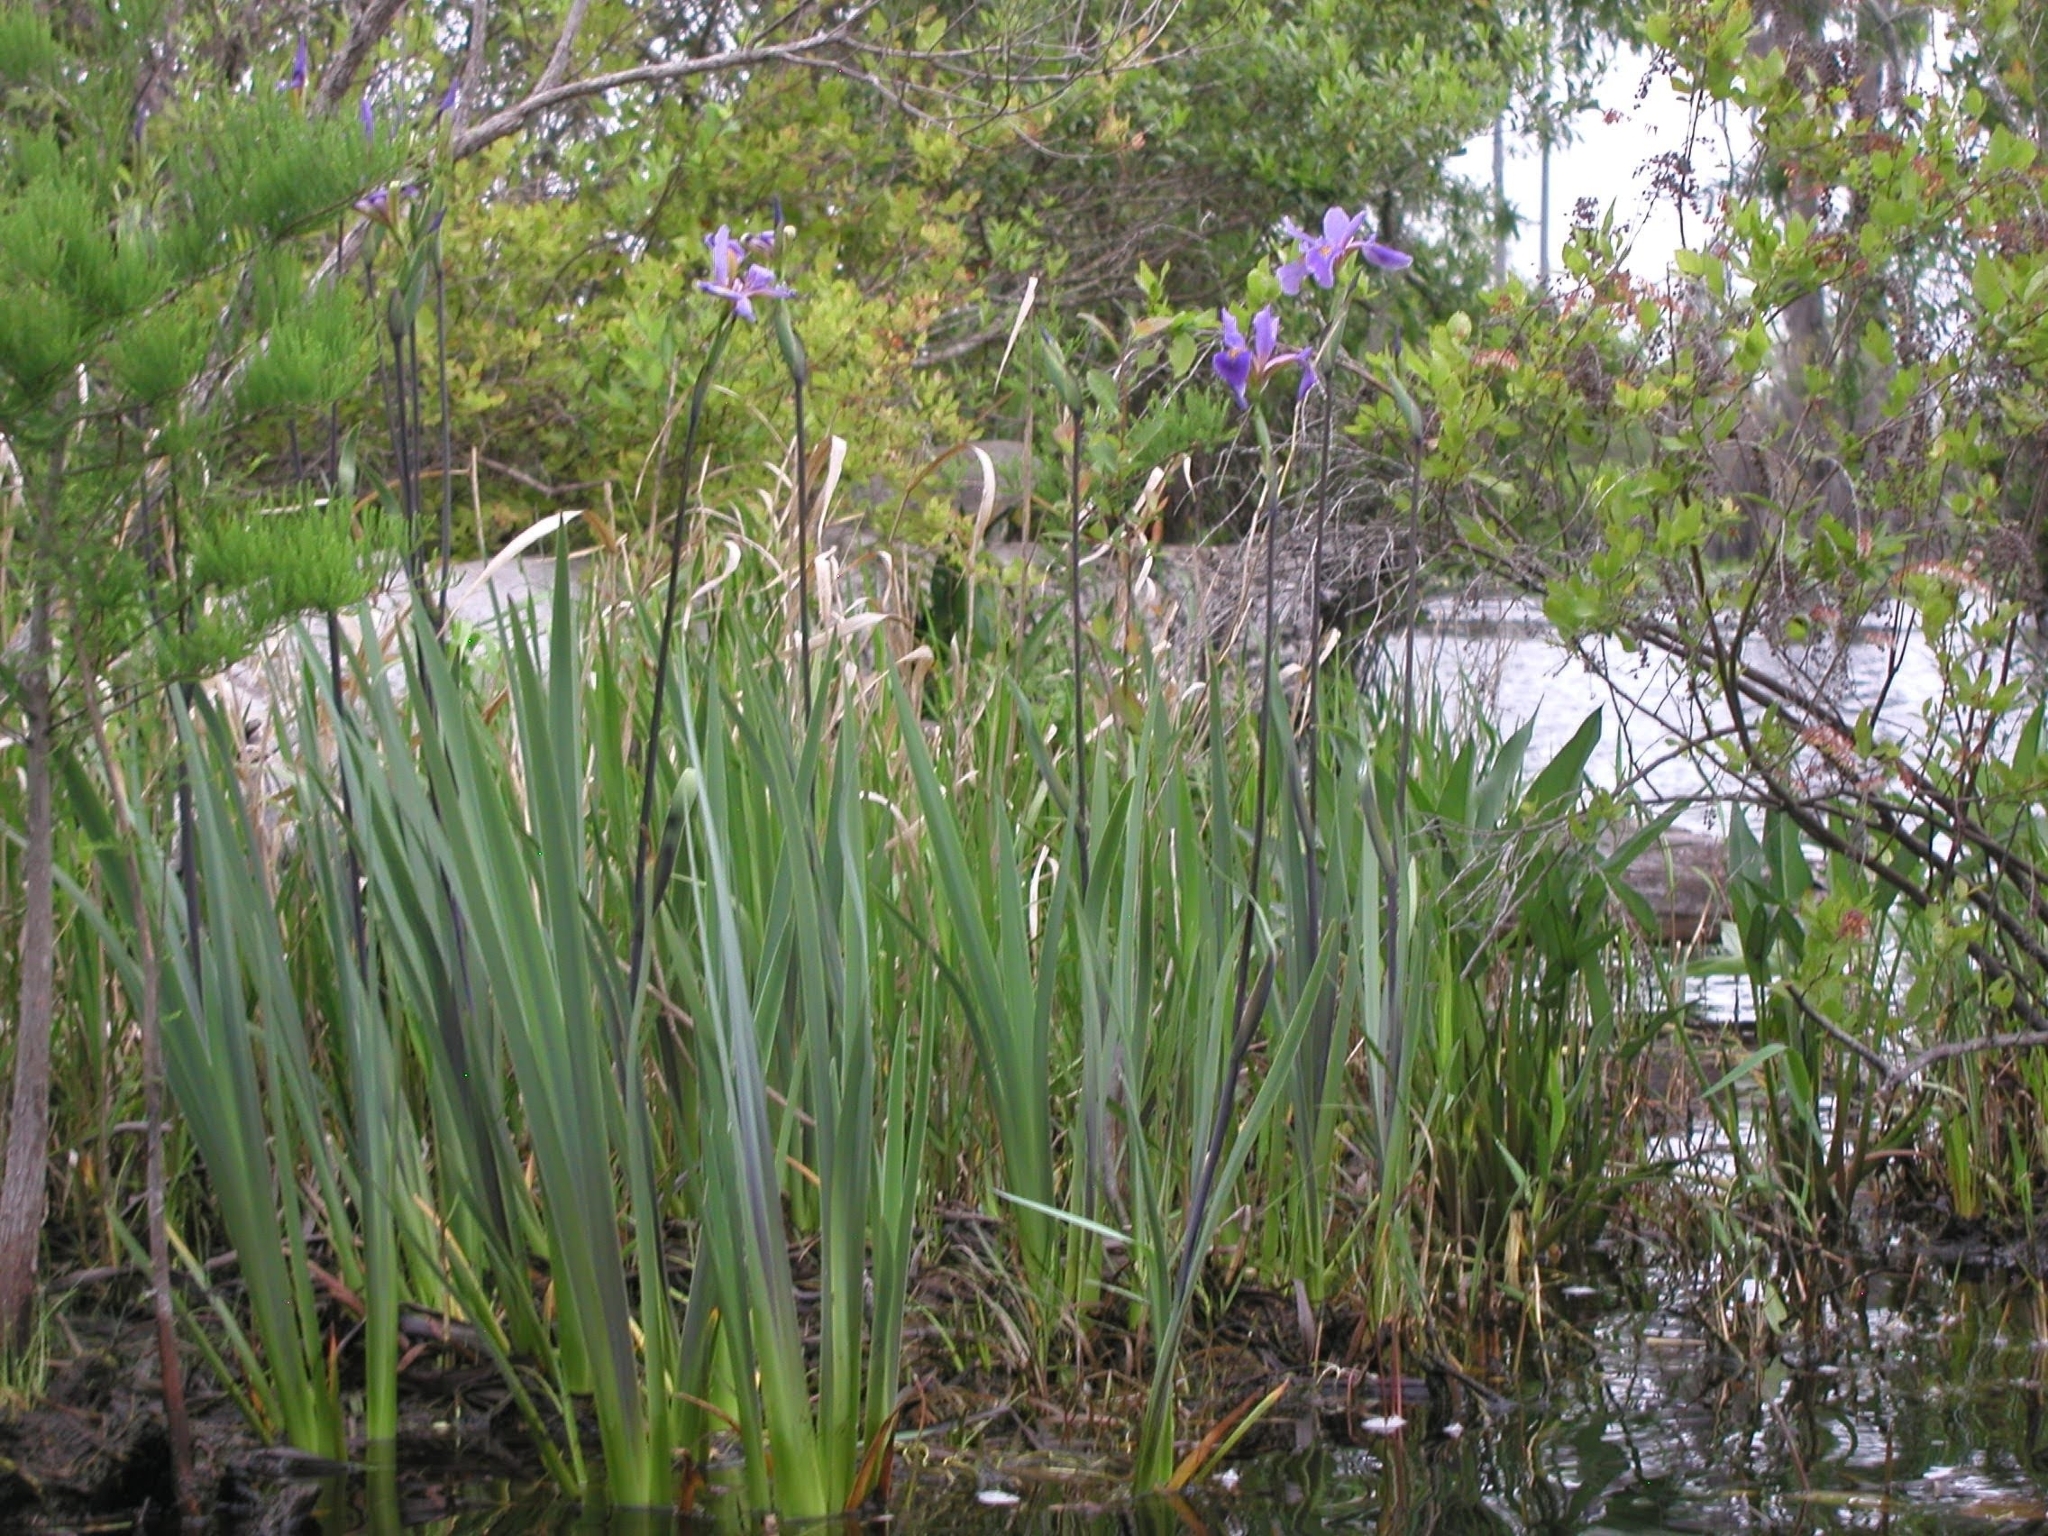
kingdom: Plantae
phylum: Tracheophyta
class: Liliopsida
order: Asparagales
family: Iridaceae
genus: Iris
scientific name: Iris virginica
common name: Southern blue flag
